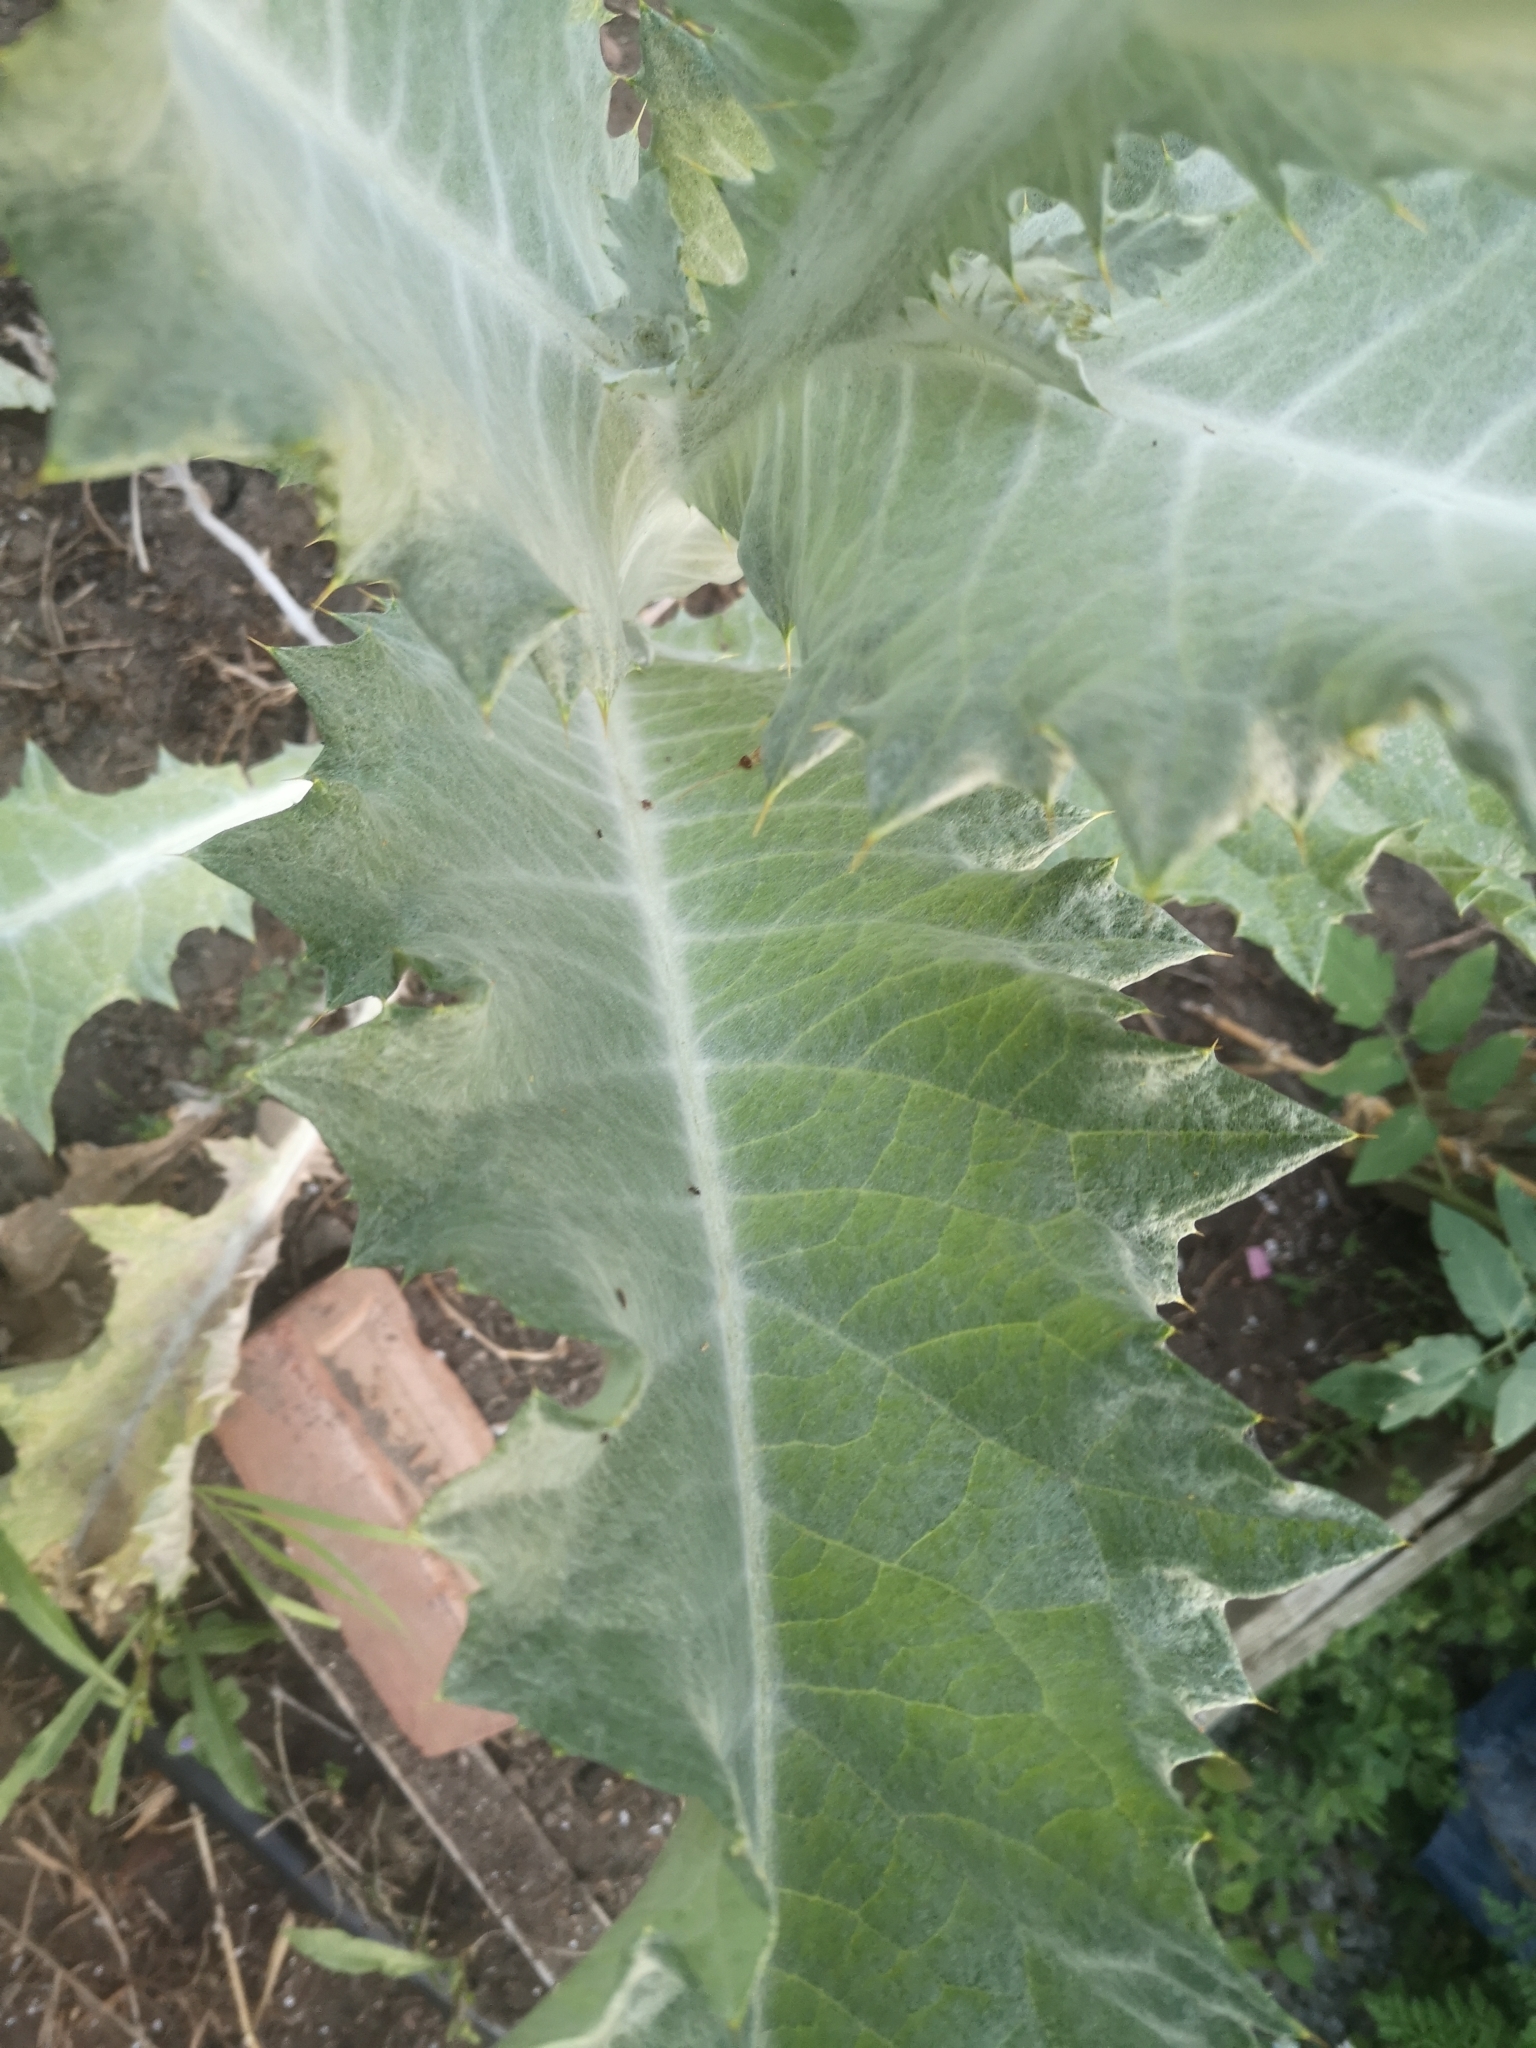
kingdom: Plantae
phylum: Tracheophyta
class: Magnoliopsida
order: Asterales
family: Asteraceae
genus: Onopordum
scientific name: Onopordum acanthium
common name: Scotch thistle
